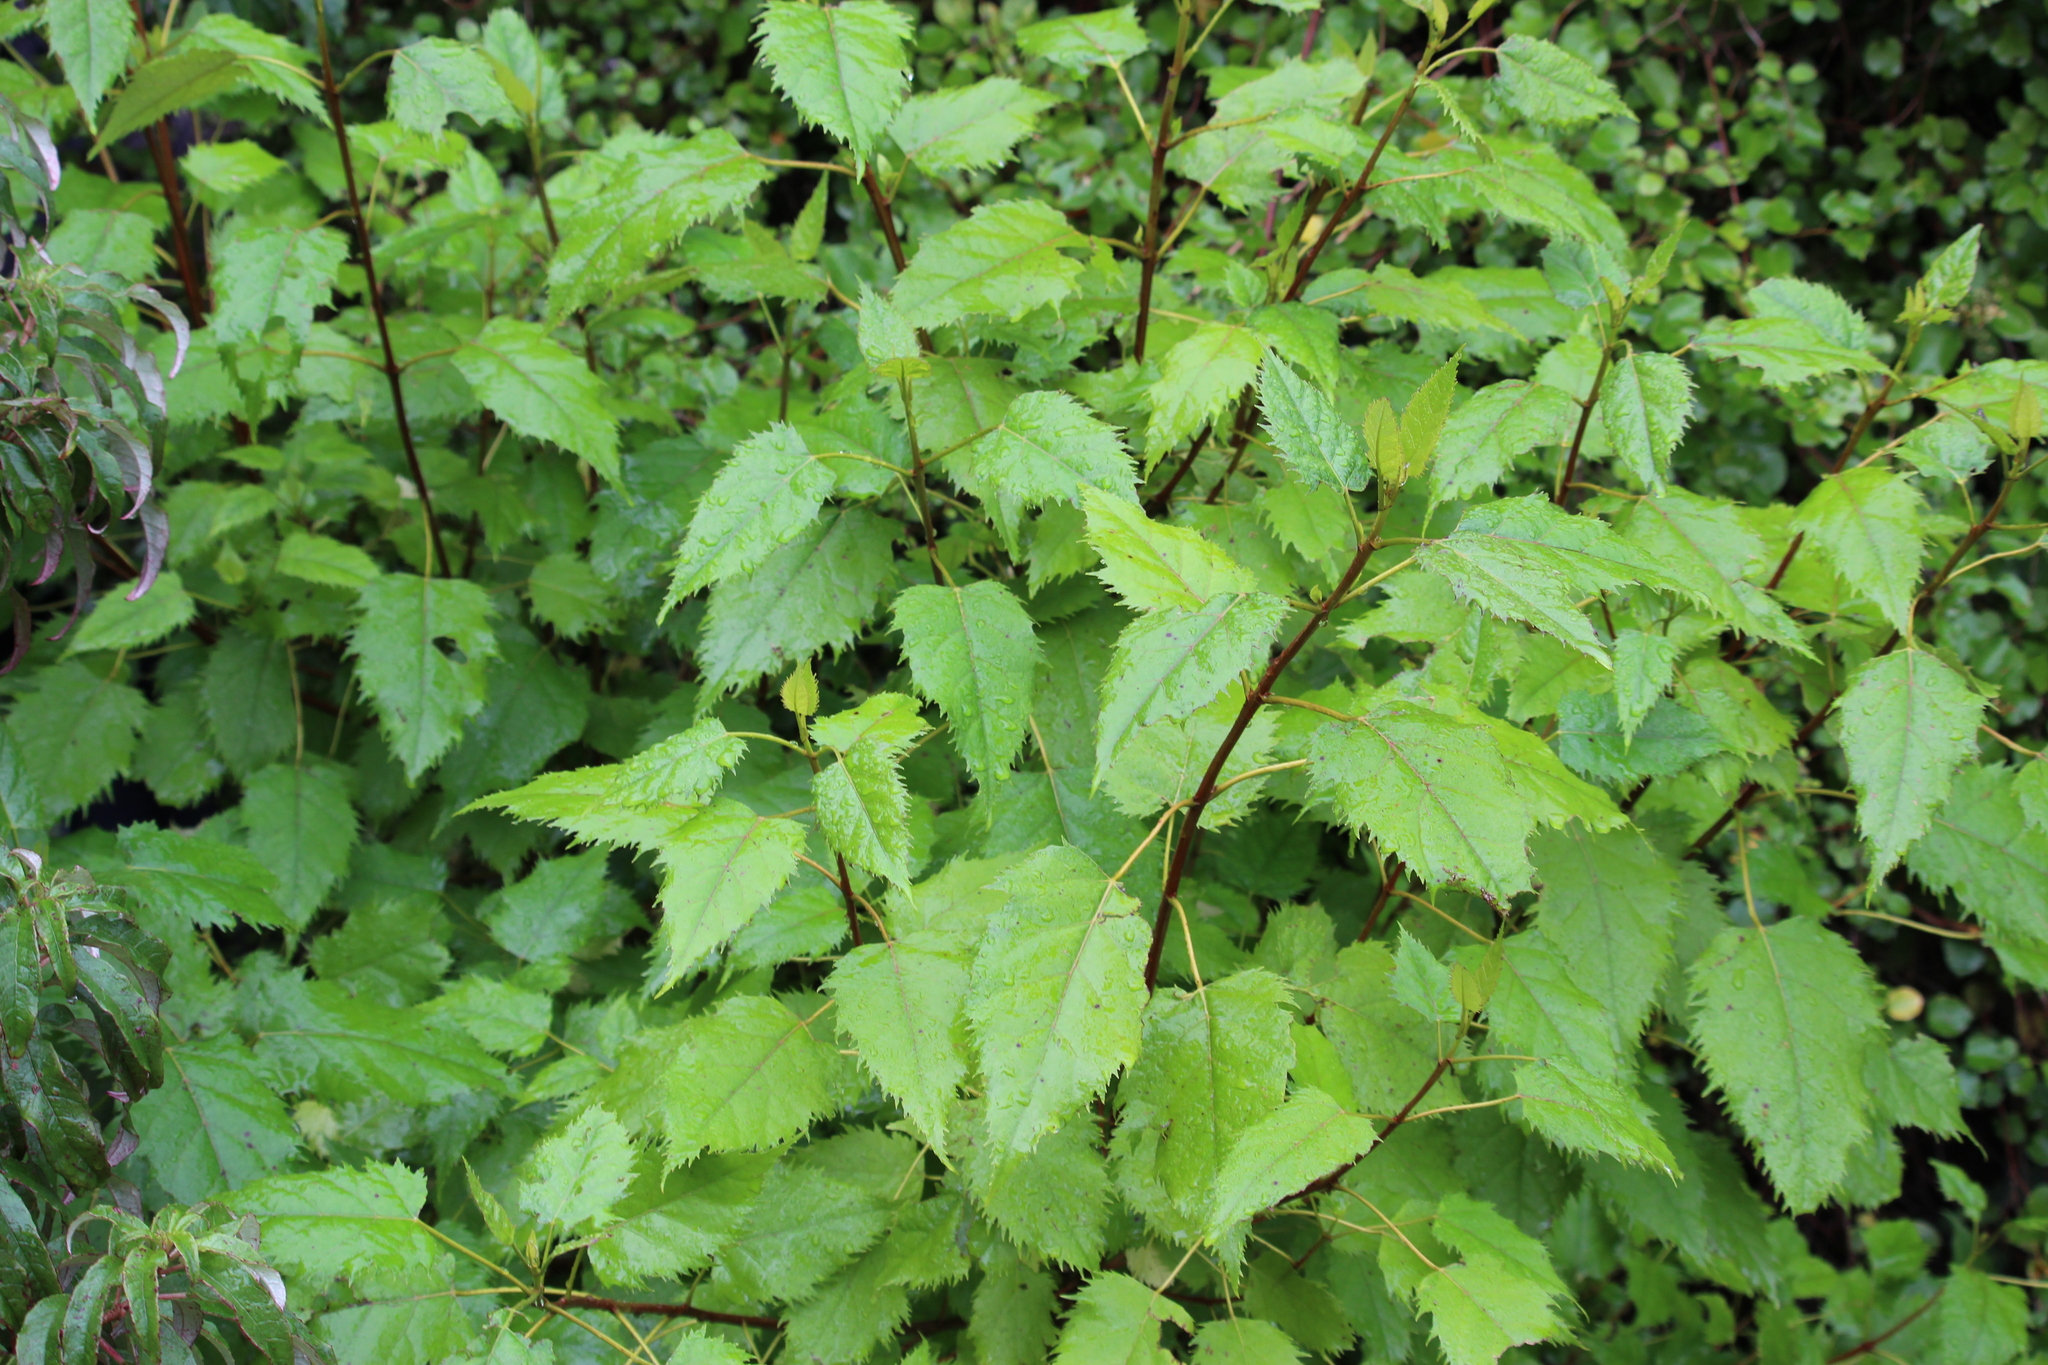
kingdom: Plantae
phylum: Tracheophyta
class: Magnoliopsida
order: Oxalidales
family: Elaeocarpaceae
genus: Aristotelia
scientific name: Aristotelia serrata
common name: New zealand wineberry
